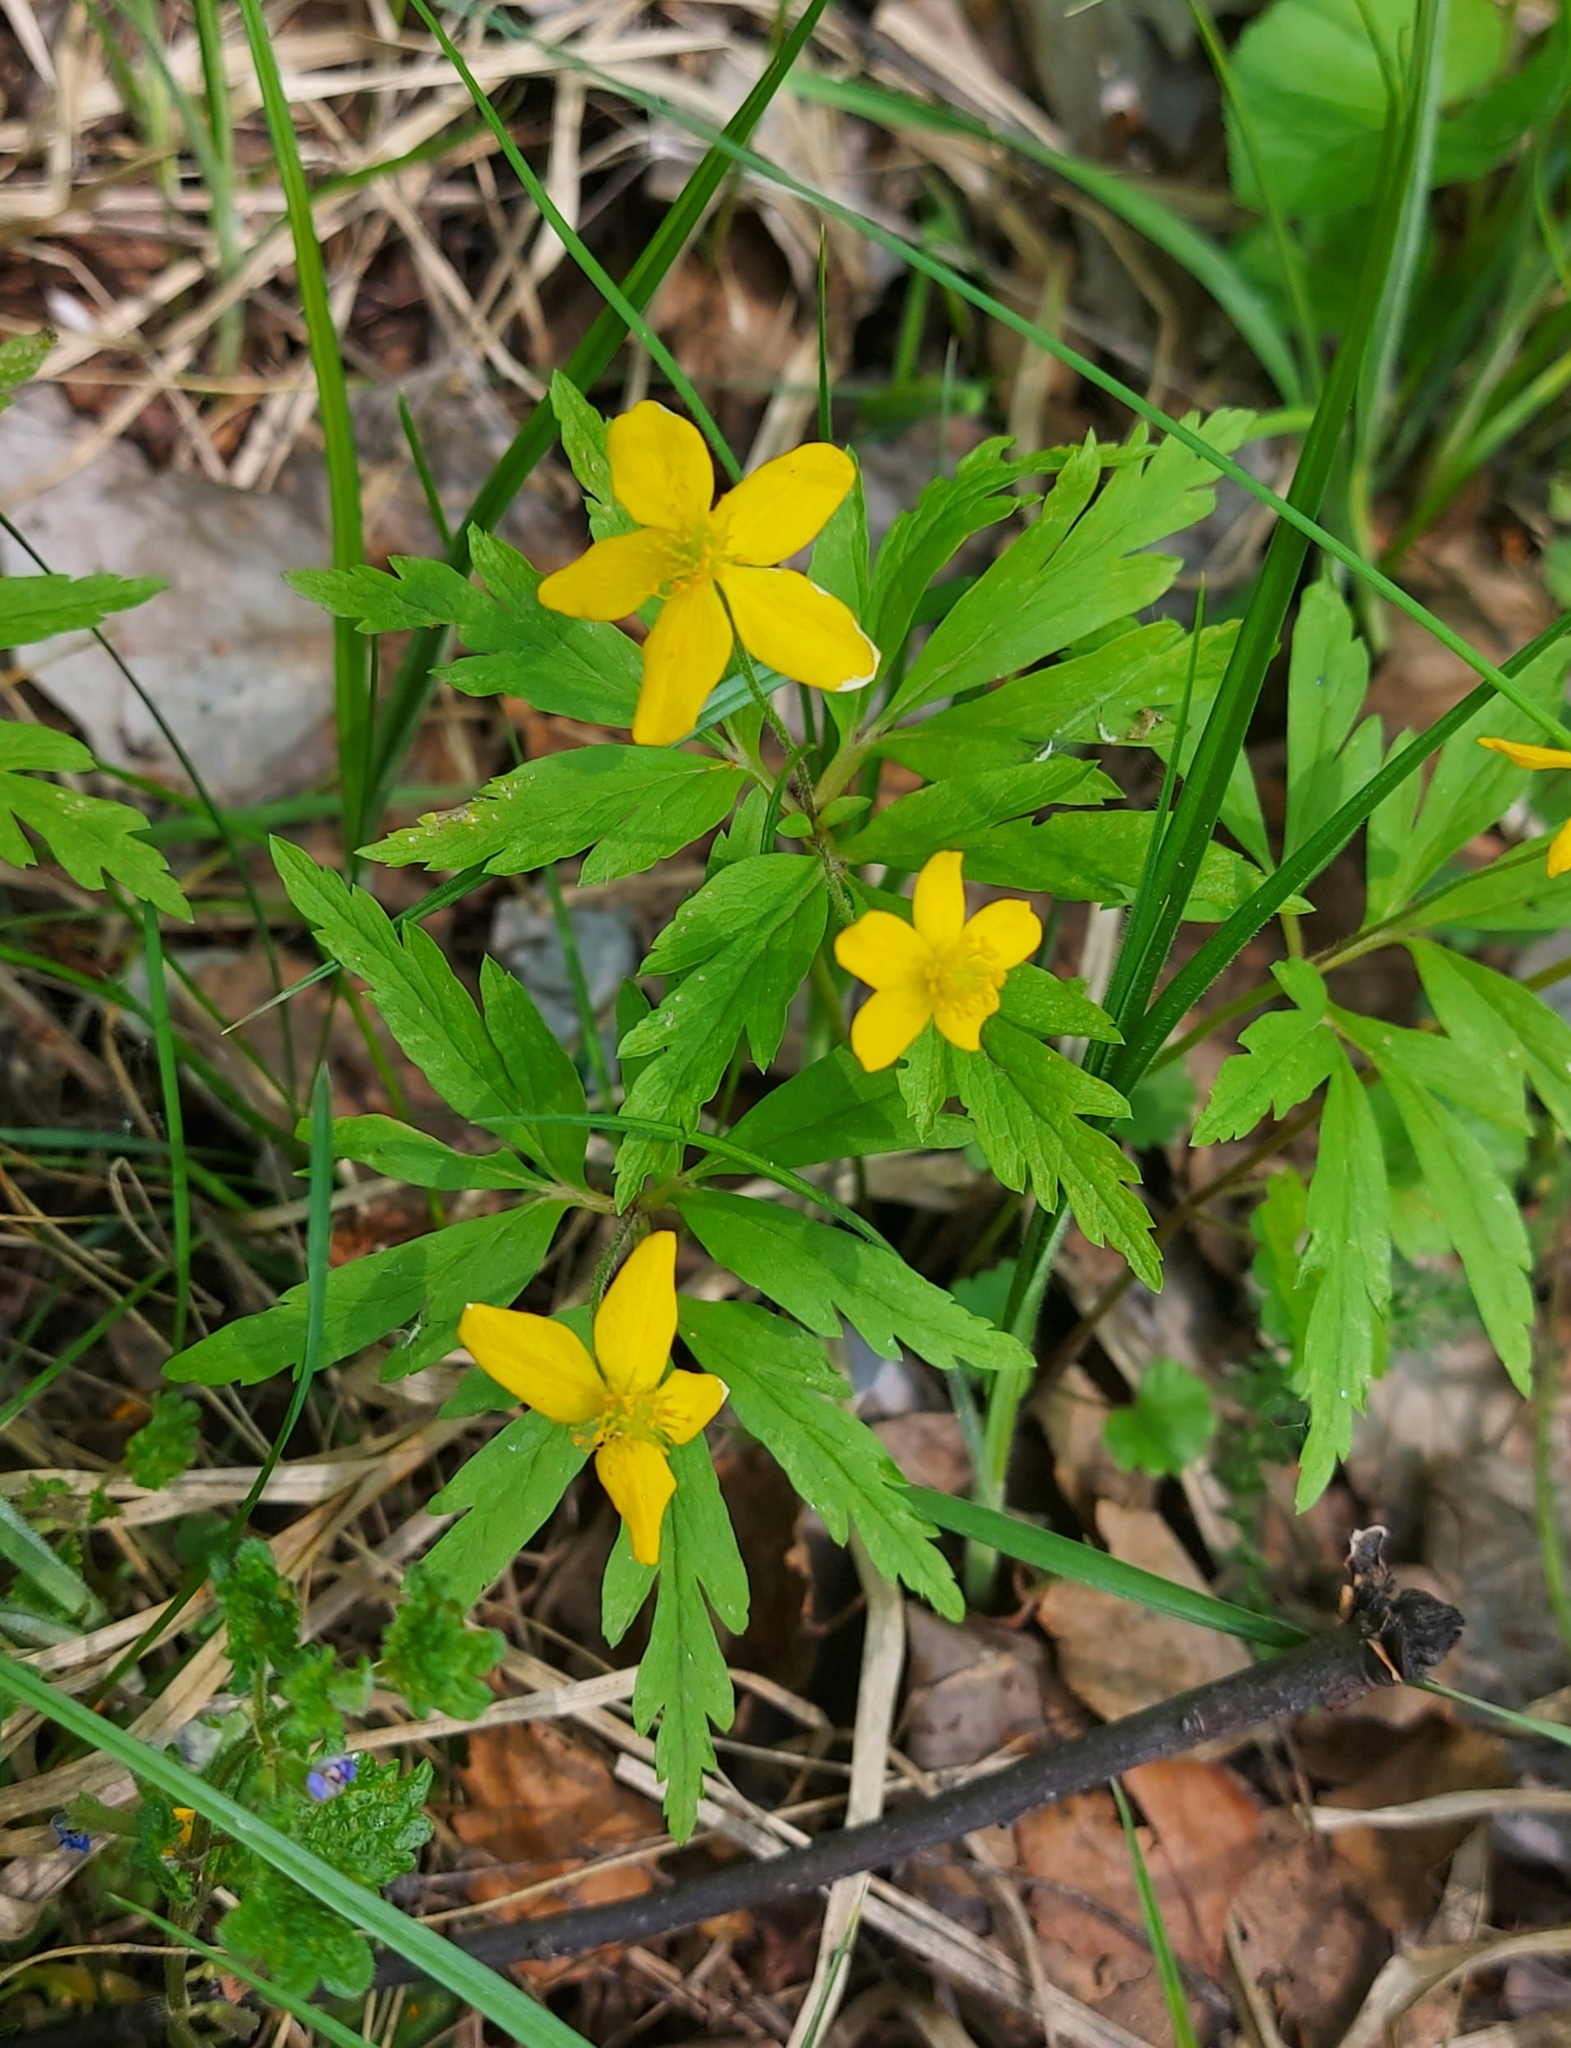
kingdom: Plantae
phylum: Tracheophyta
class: Magnoliopsida
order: Ranunculales
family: Ranunculaceae
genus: Anemone
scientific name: Anemone ranunculoides
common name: Yellow anemone
